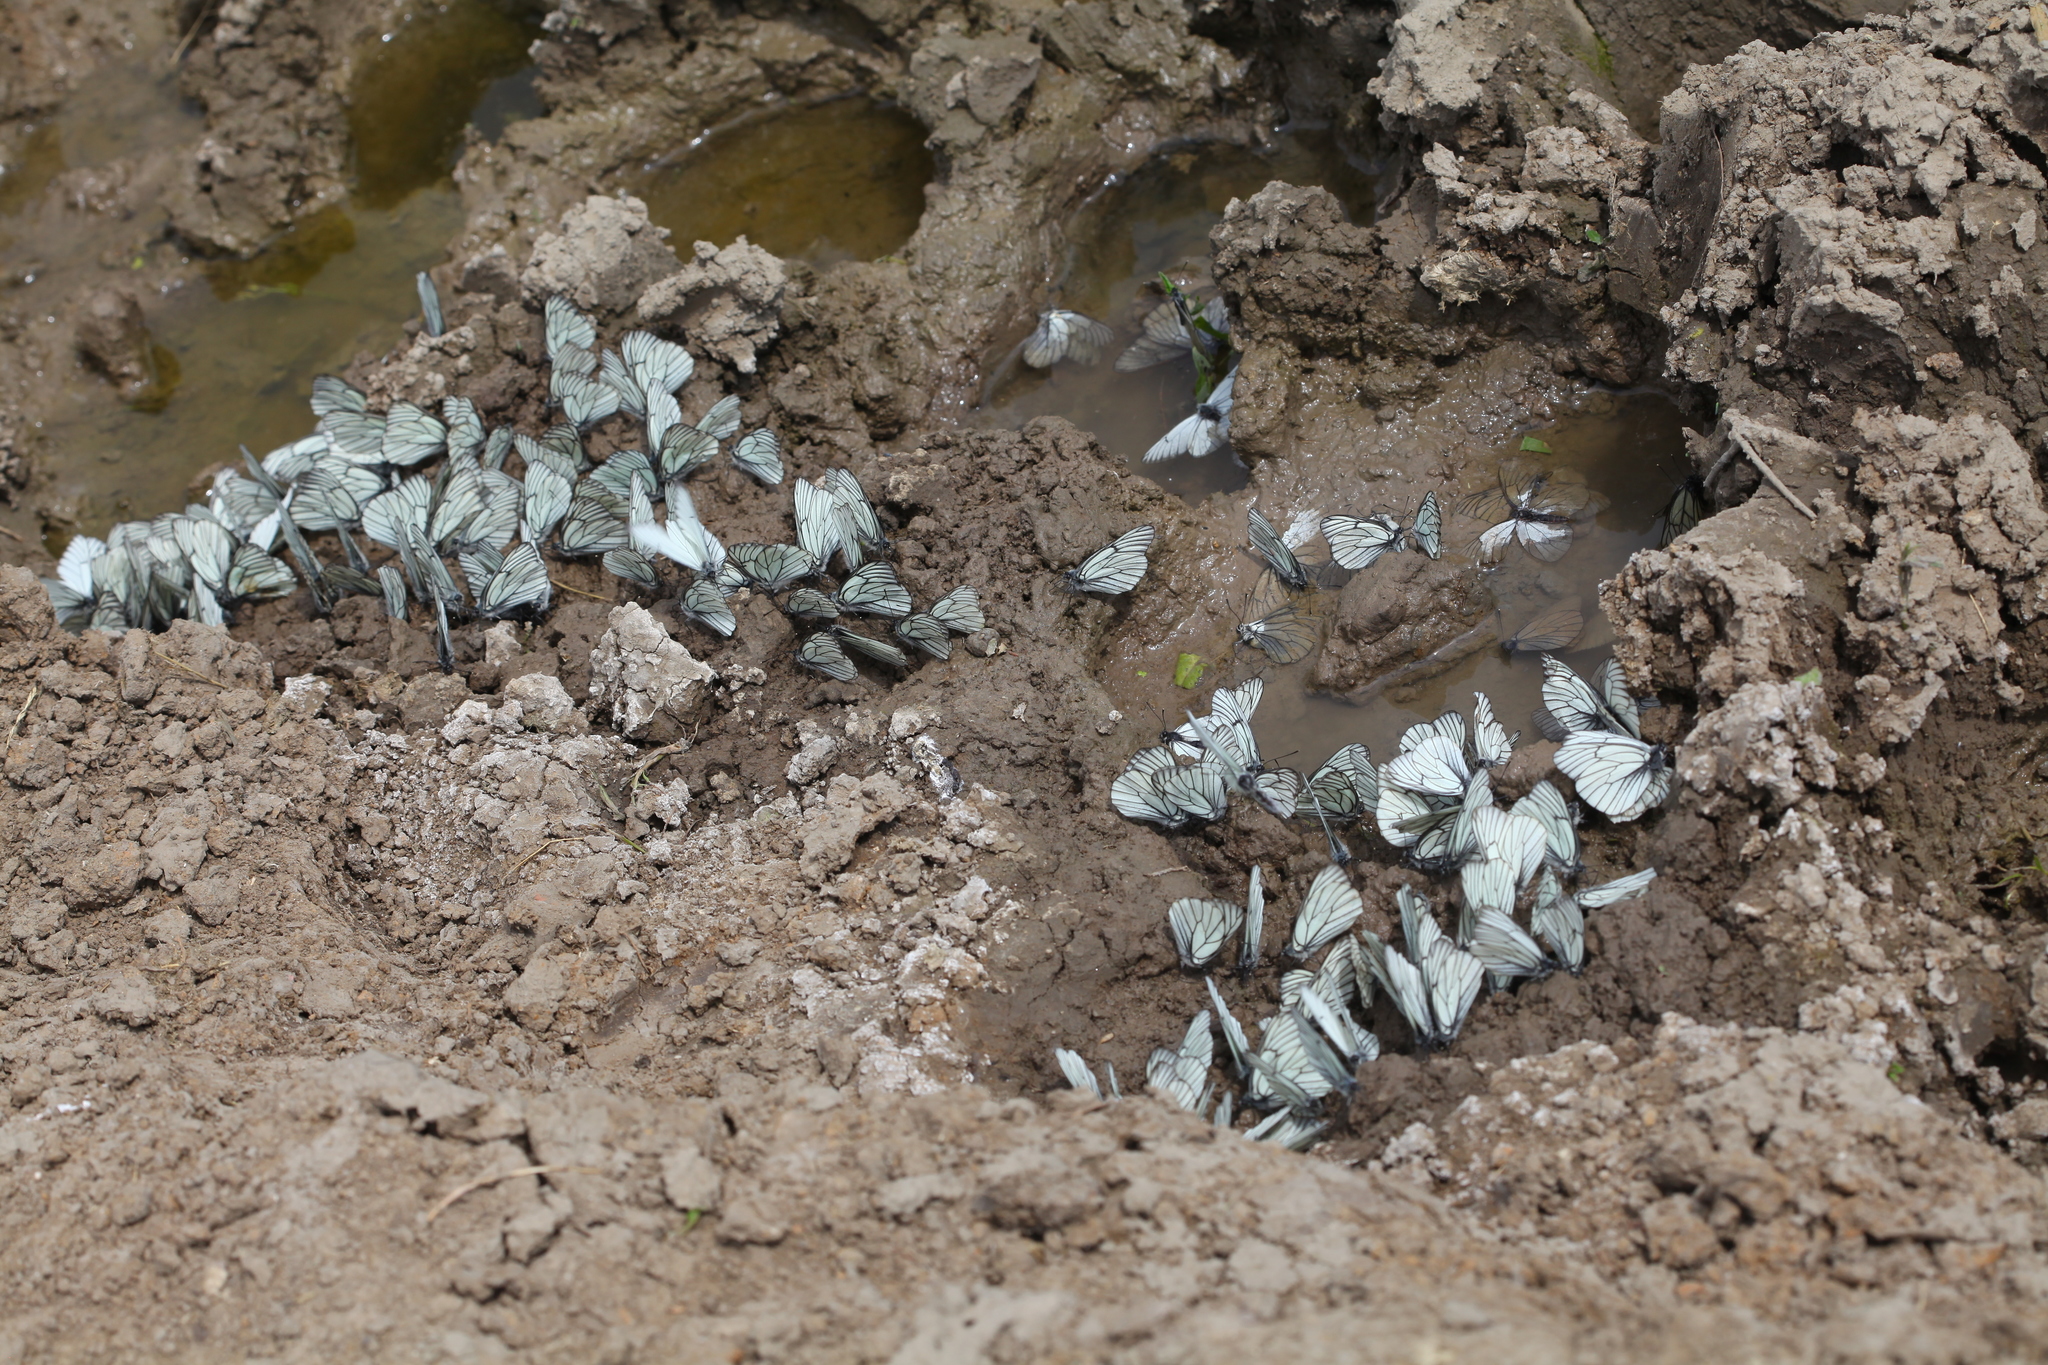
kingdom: Animalia
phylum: Arthropoda
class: Insecta
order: Lepidoptera
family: Pieridae
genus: Aporia
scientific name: Aporia crataegi
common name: Black-veined white
